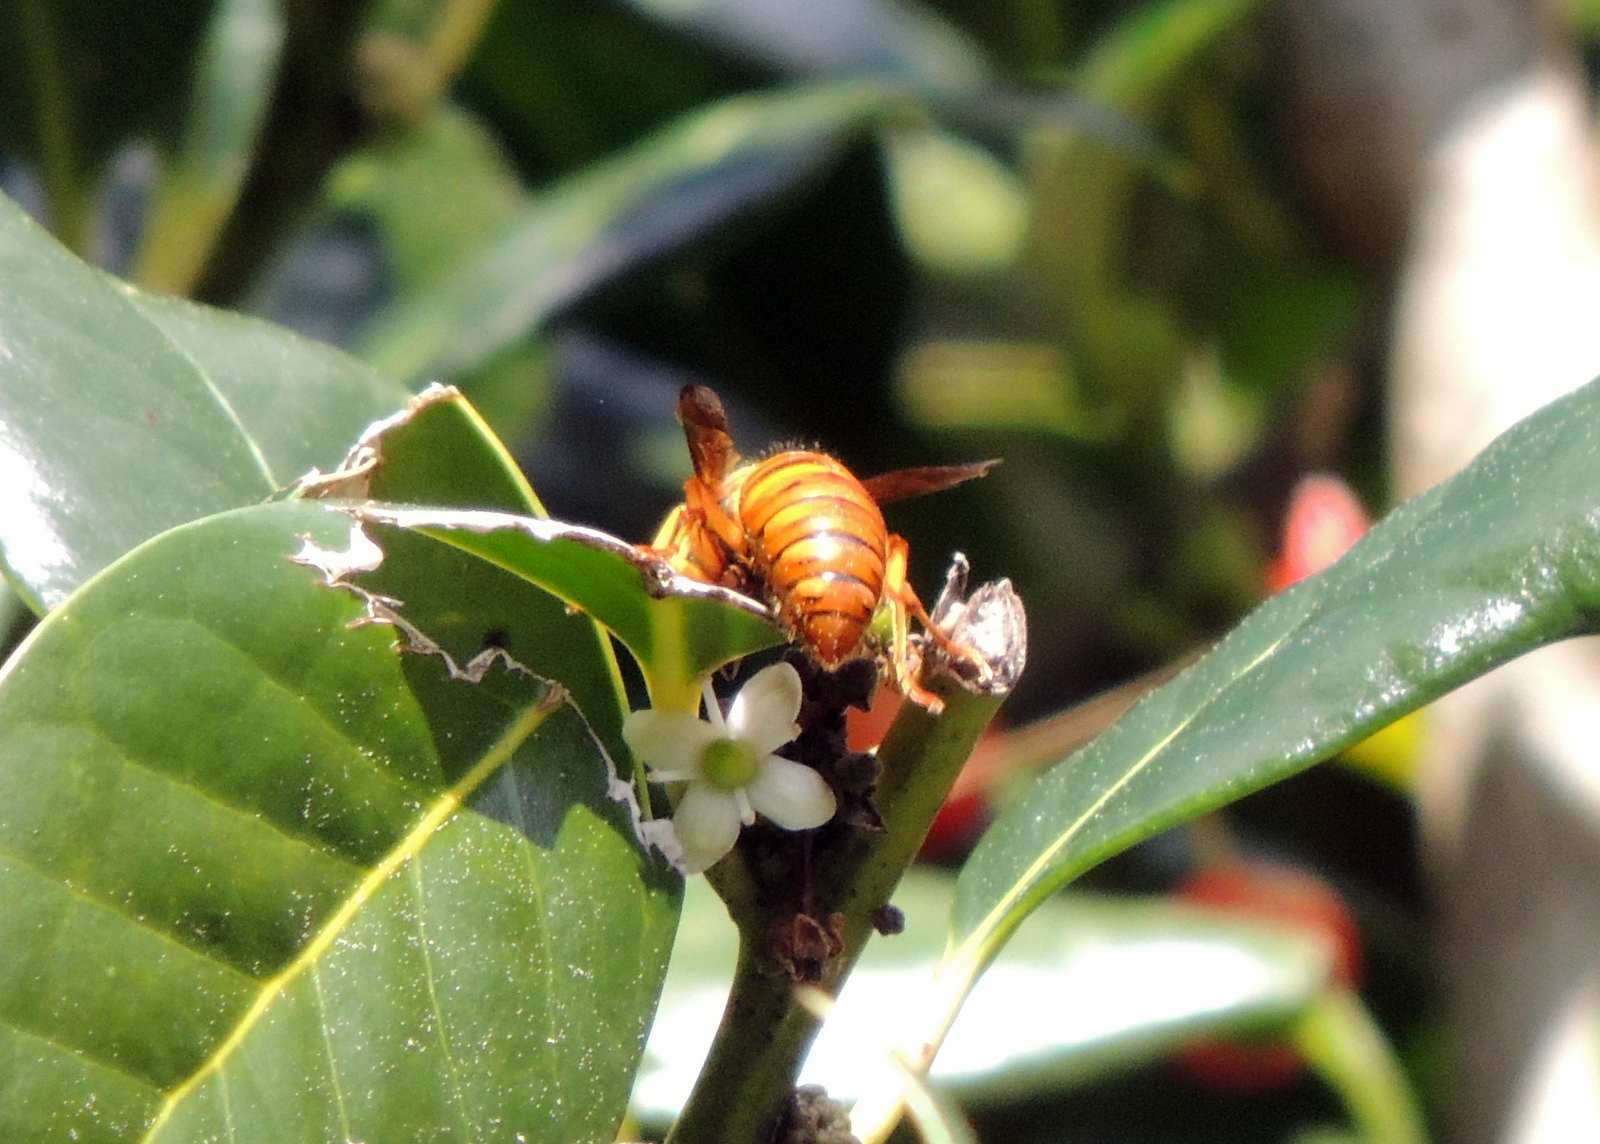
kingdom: Animalia
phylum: Arthropoda
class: Insecta
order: Hymenoptera
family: Vespidae
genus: Vespula
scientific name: Vespula squamosa
